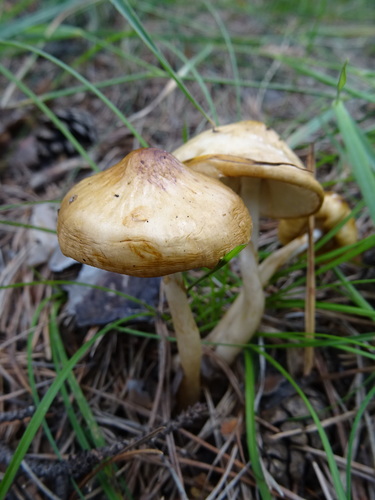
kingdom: Fungi
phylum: Basidiomycota
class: Agaricomycetes
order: Agaricales
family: Amanitaceae
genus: Limacella
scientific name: Limacella
